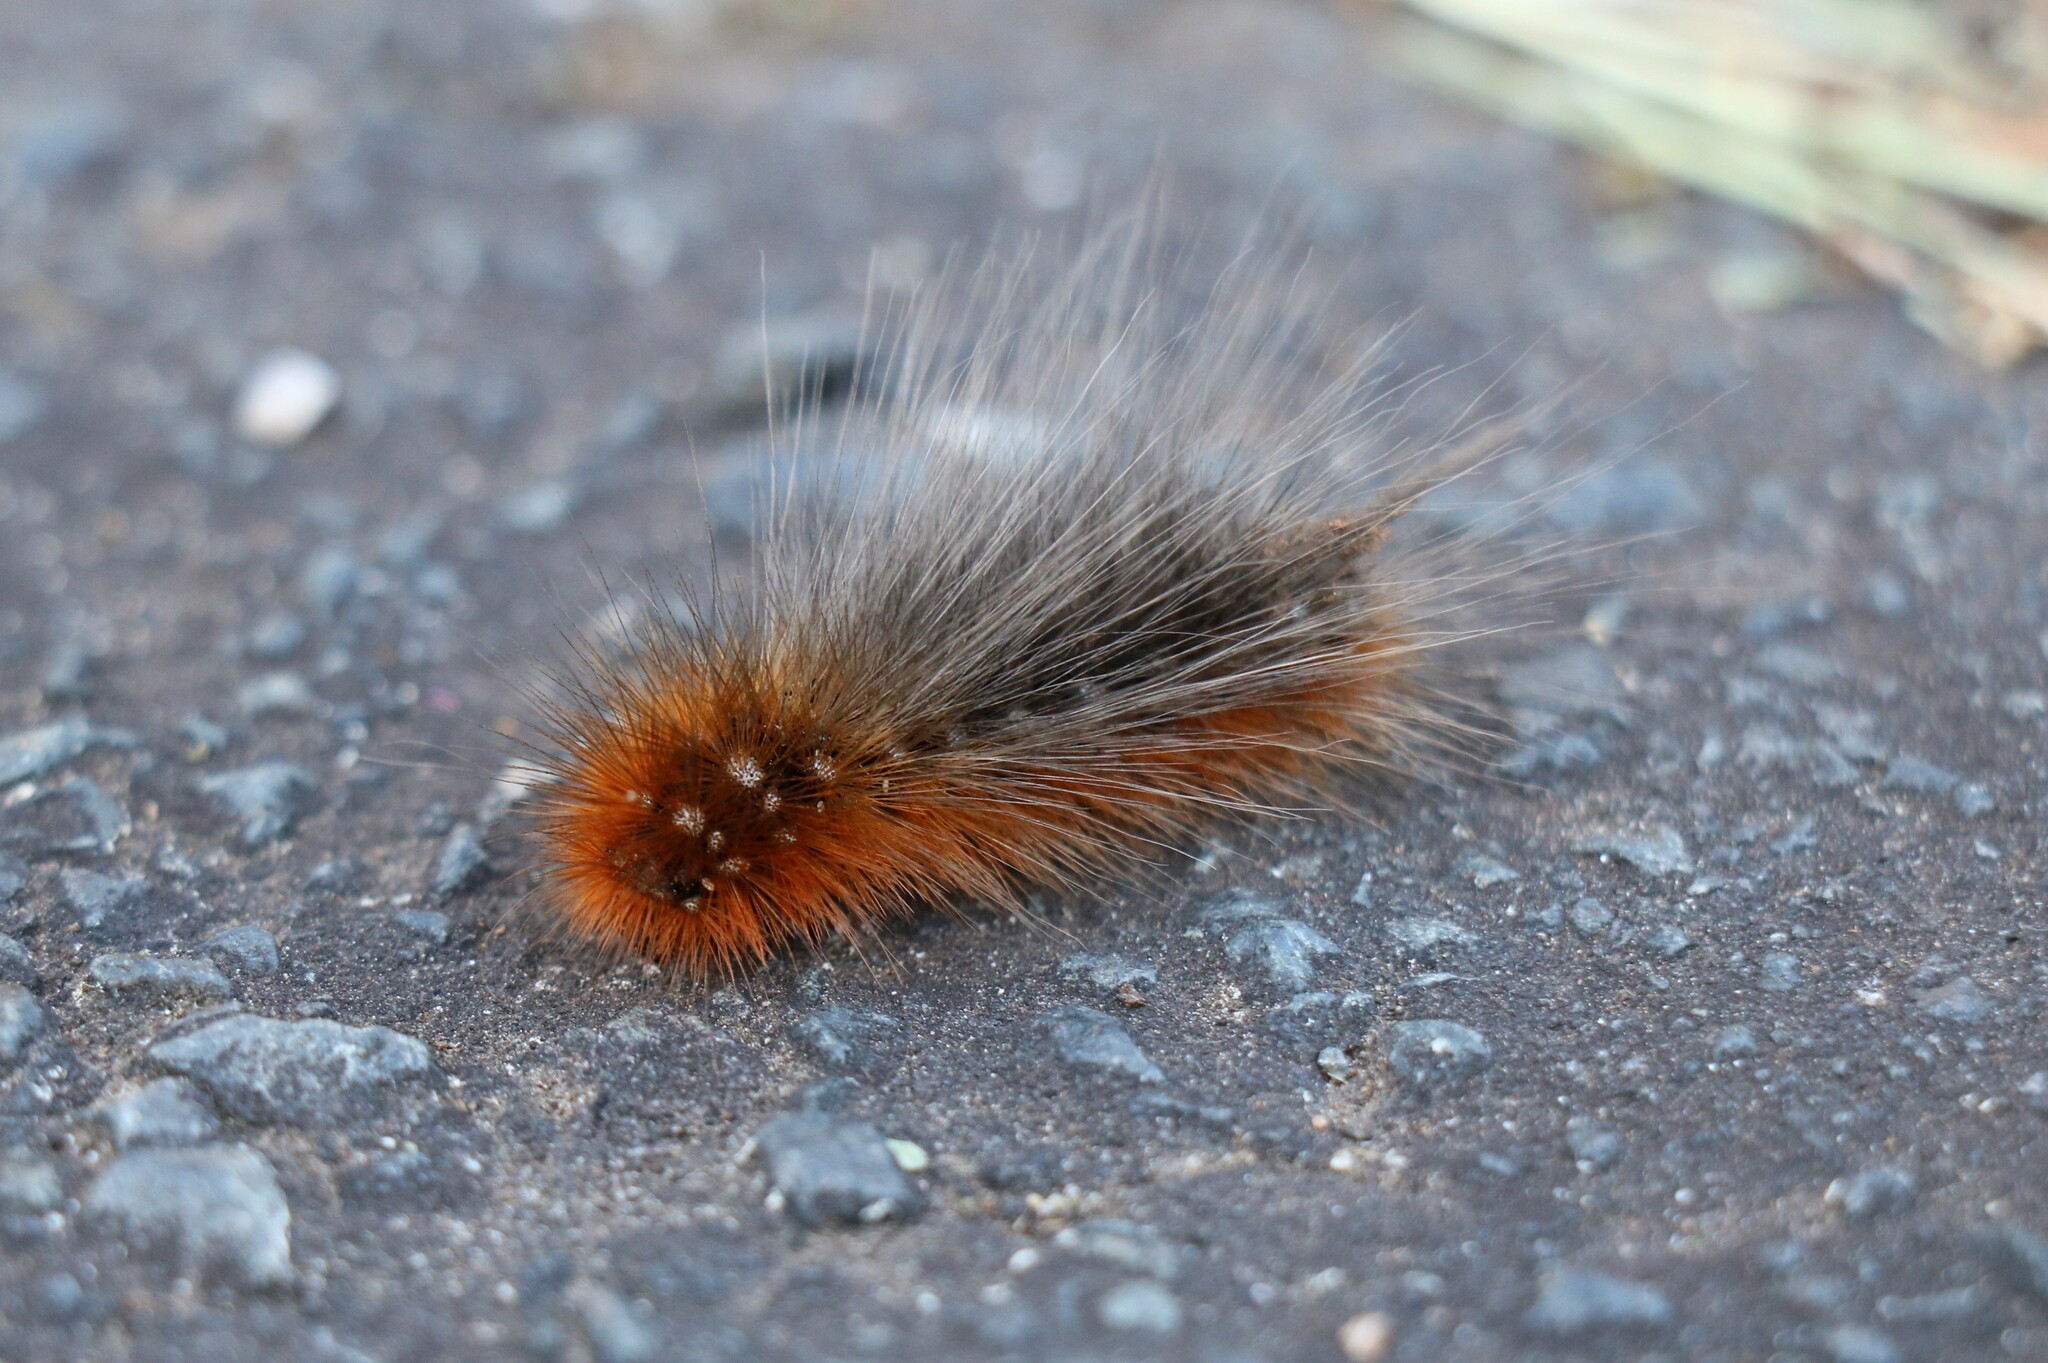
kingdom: Animalia
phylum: Arthropoda
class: Insecta
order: Lepidoptera
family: Erebidae
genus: Arctia
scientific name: Arctia caja
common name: Garden tiger
